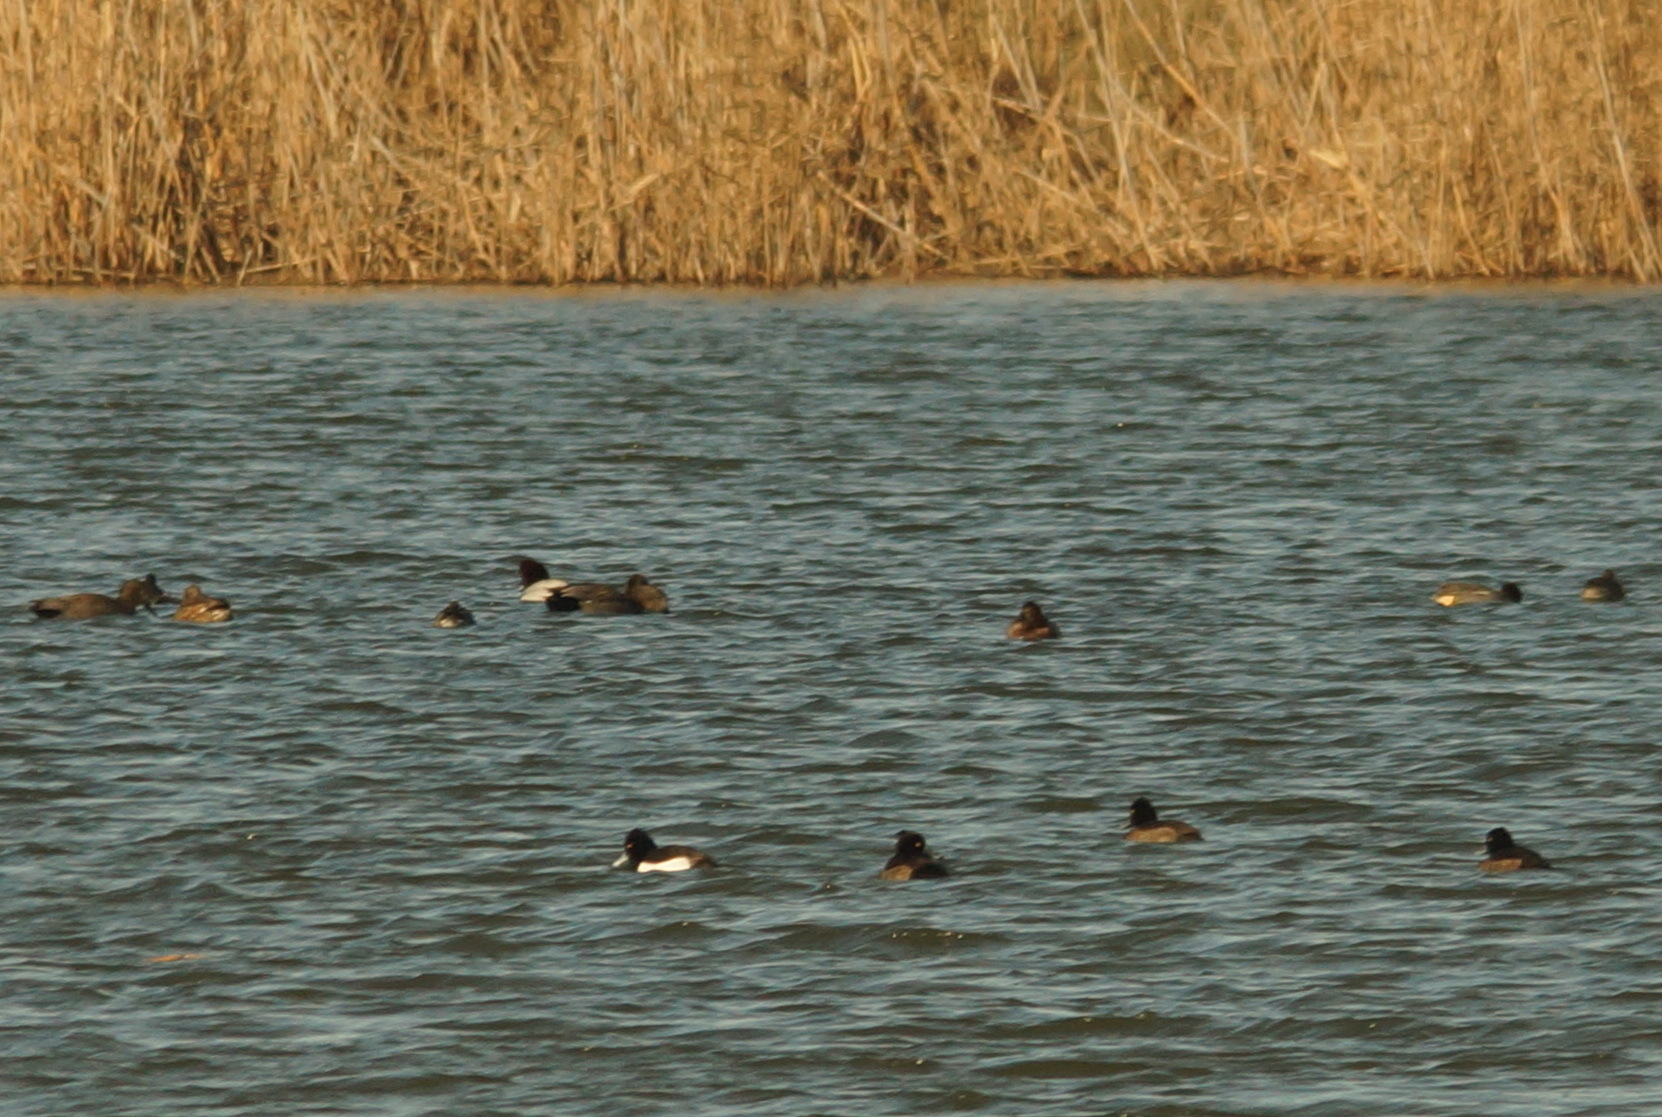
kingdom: Animalia
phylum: Chordata
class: Aves
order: Anseriformes
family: Anatidae
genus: Aythya
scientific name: Aythya fuligula
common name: Tufted duck
